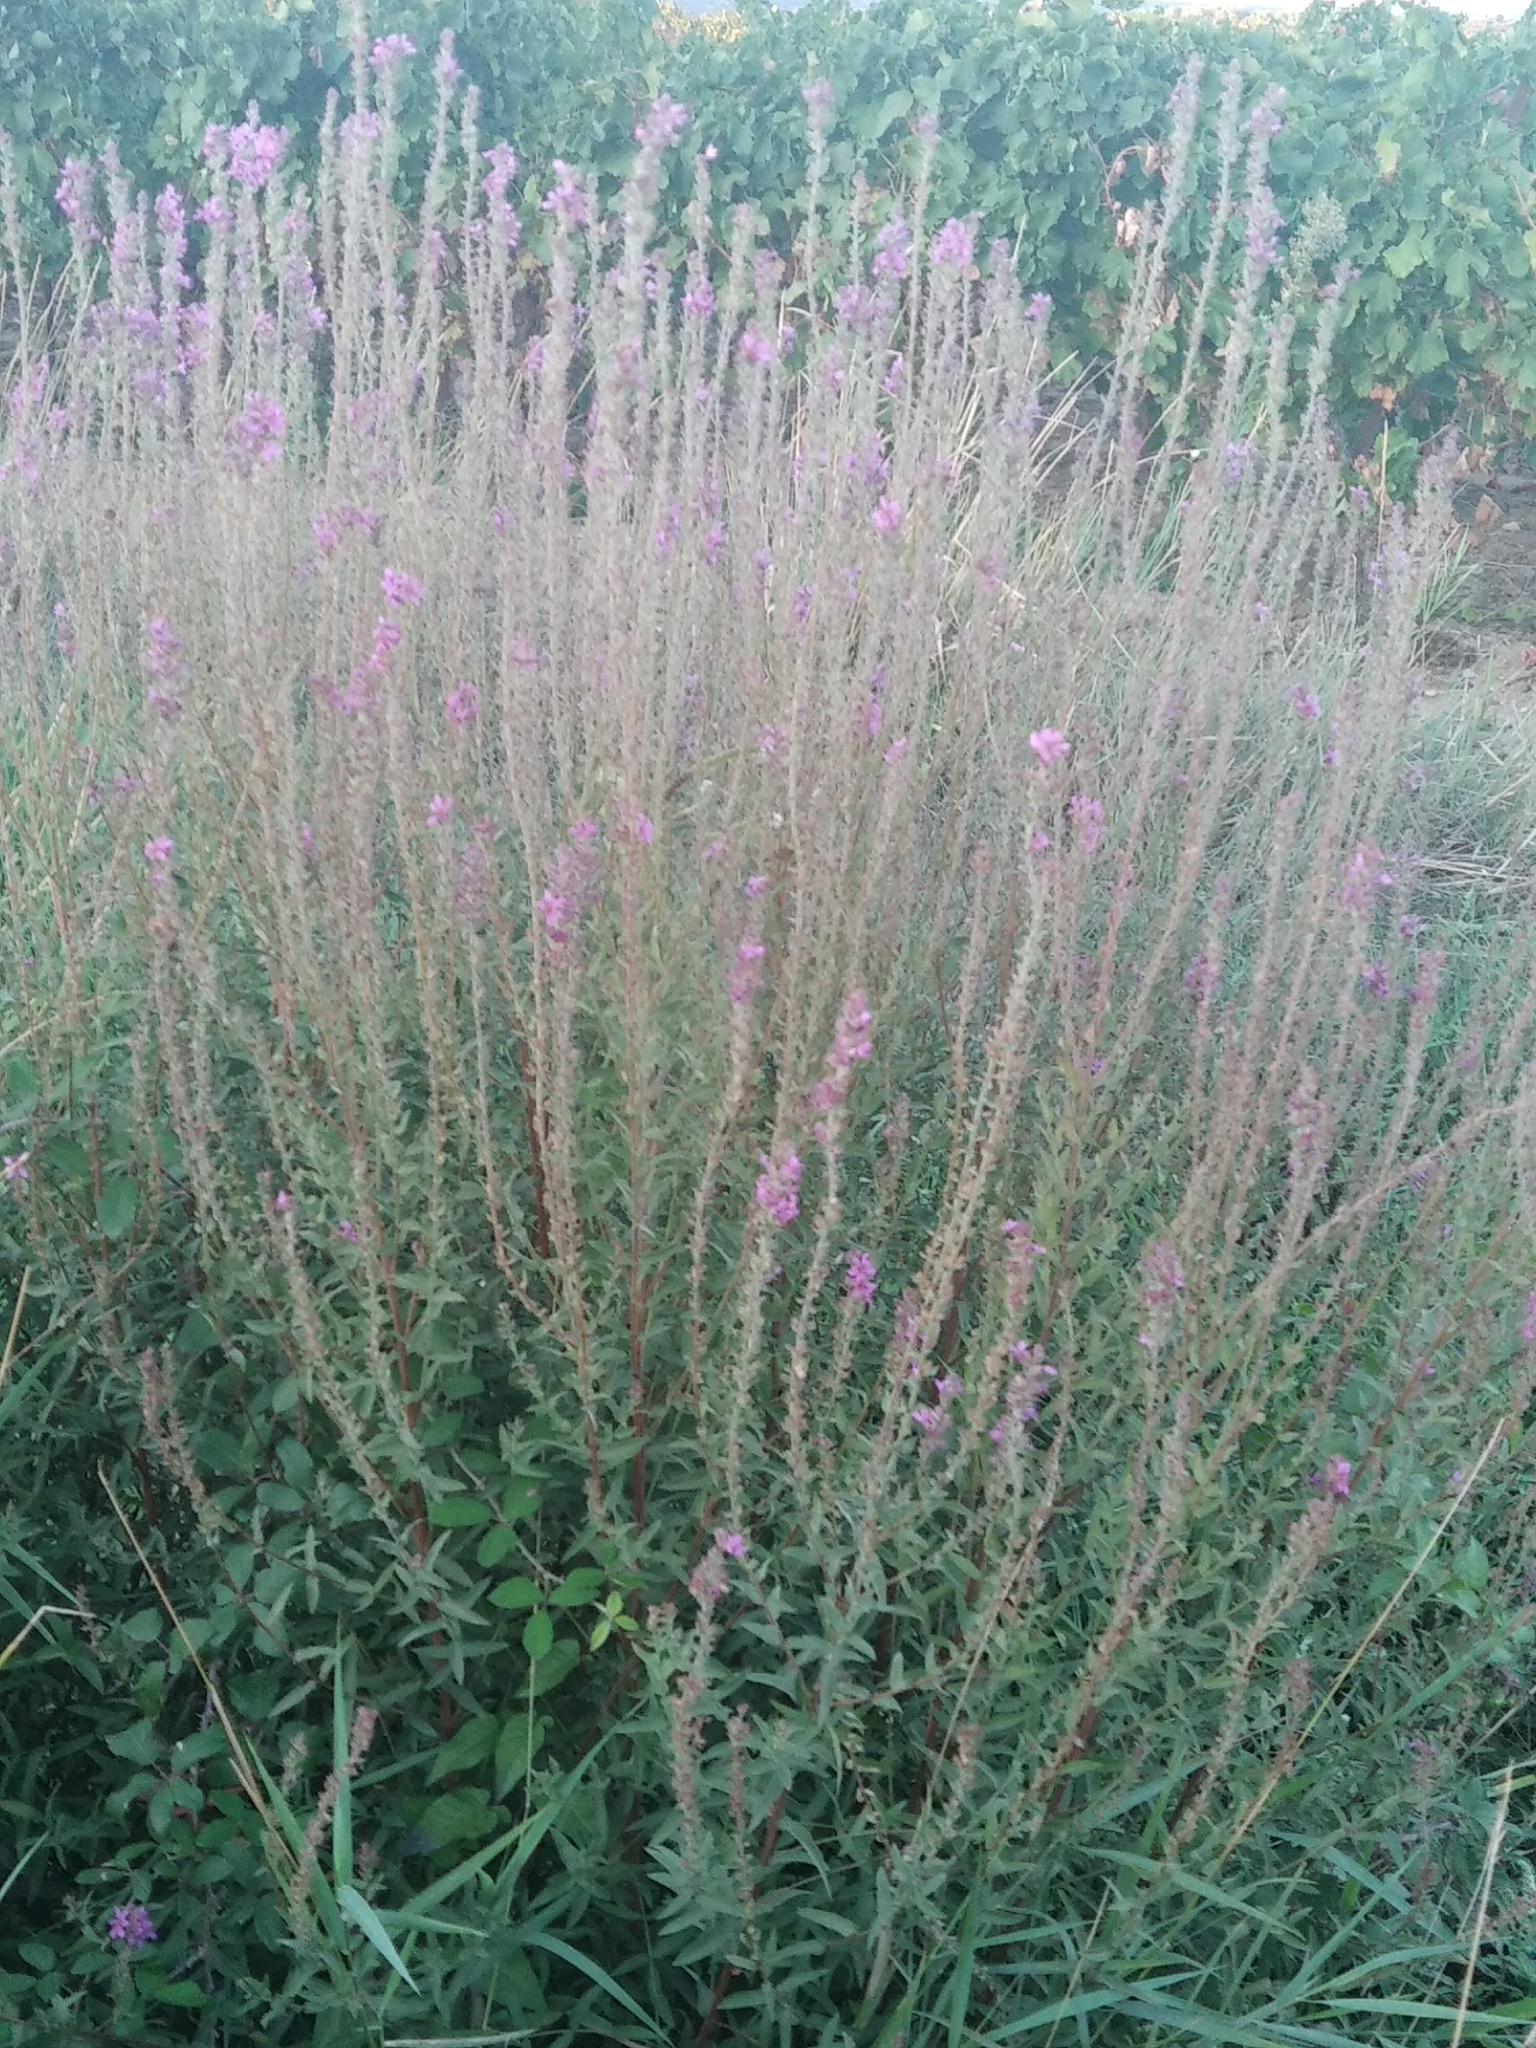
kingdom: Plantae
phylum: Tracheophyta
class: Magnoliopsida
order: Myrtales
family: Lythraceae
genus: Lythrum
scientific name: Lythrum salicaria
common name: Purple loosestrife
